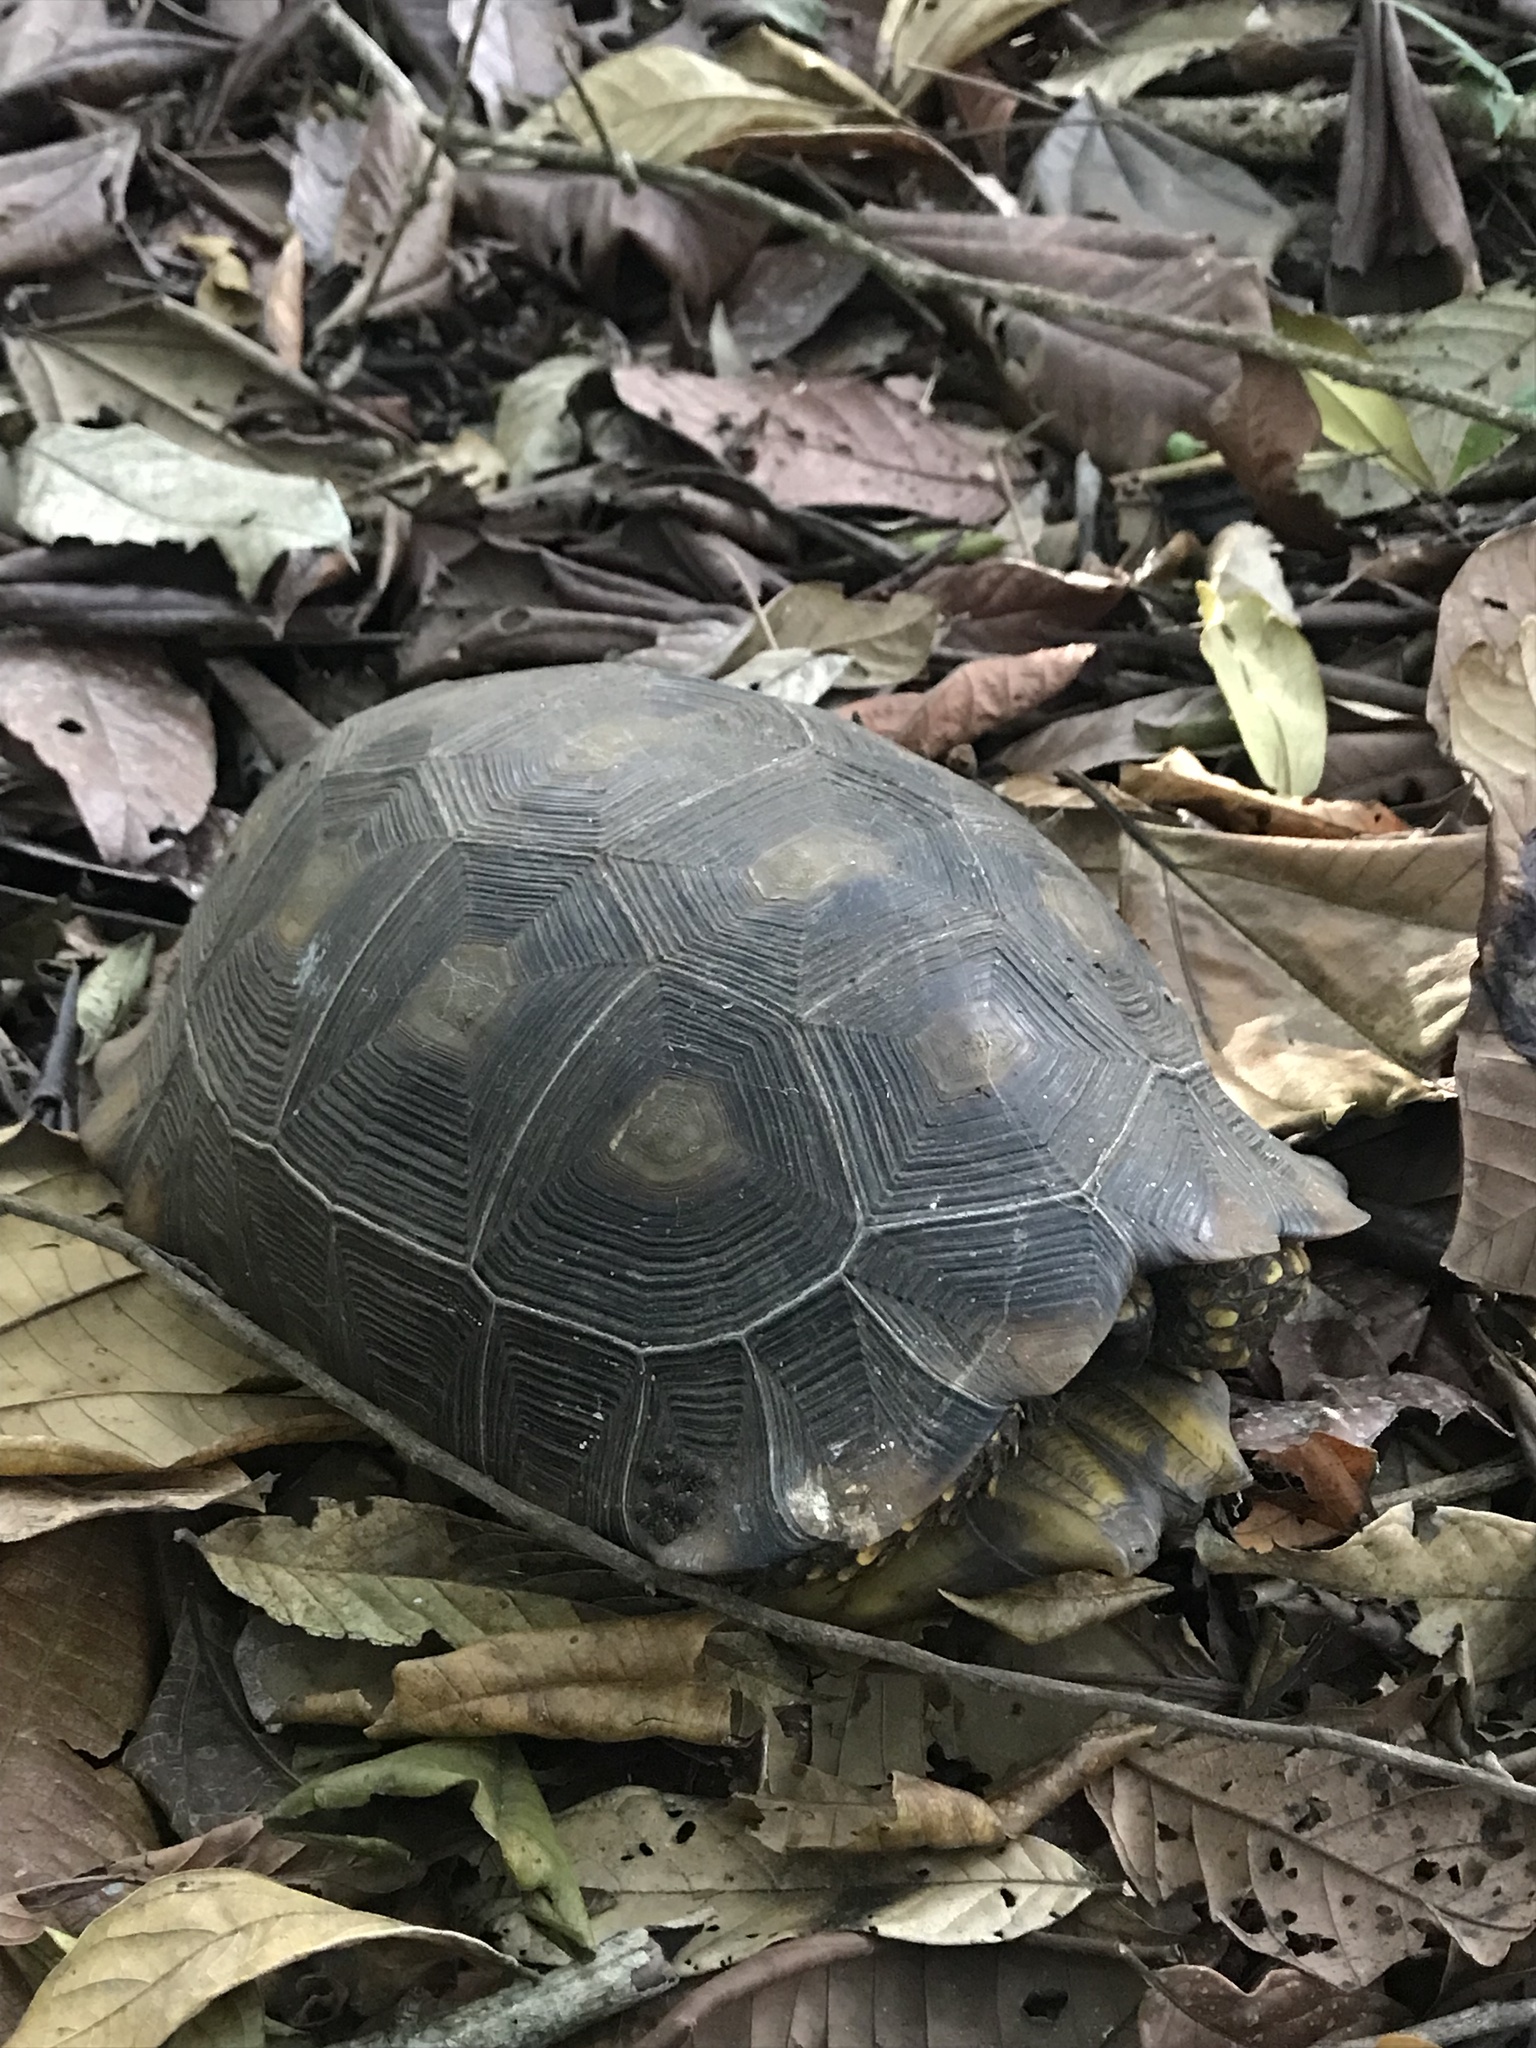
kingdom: Animalia
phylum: Chordata
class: Testudines
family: Testudinidae
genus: Chelonoidis
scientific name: Chelonoidis denticulatus
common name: Yellow-footed tortoise
